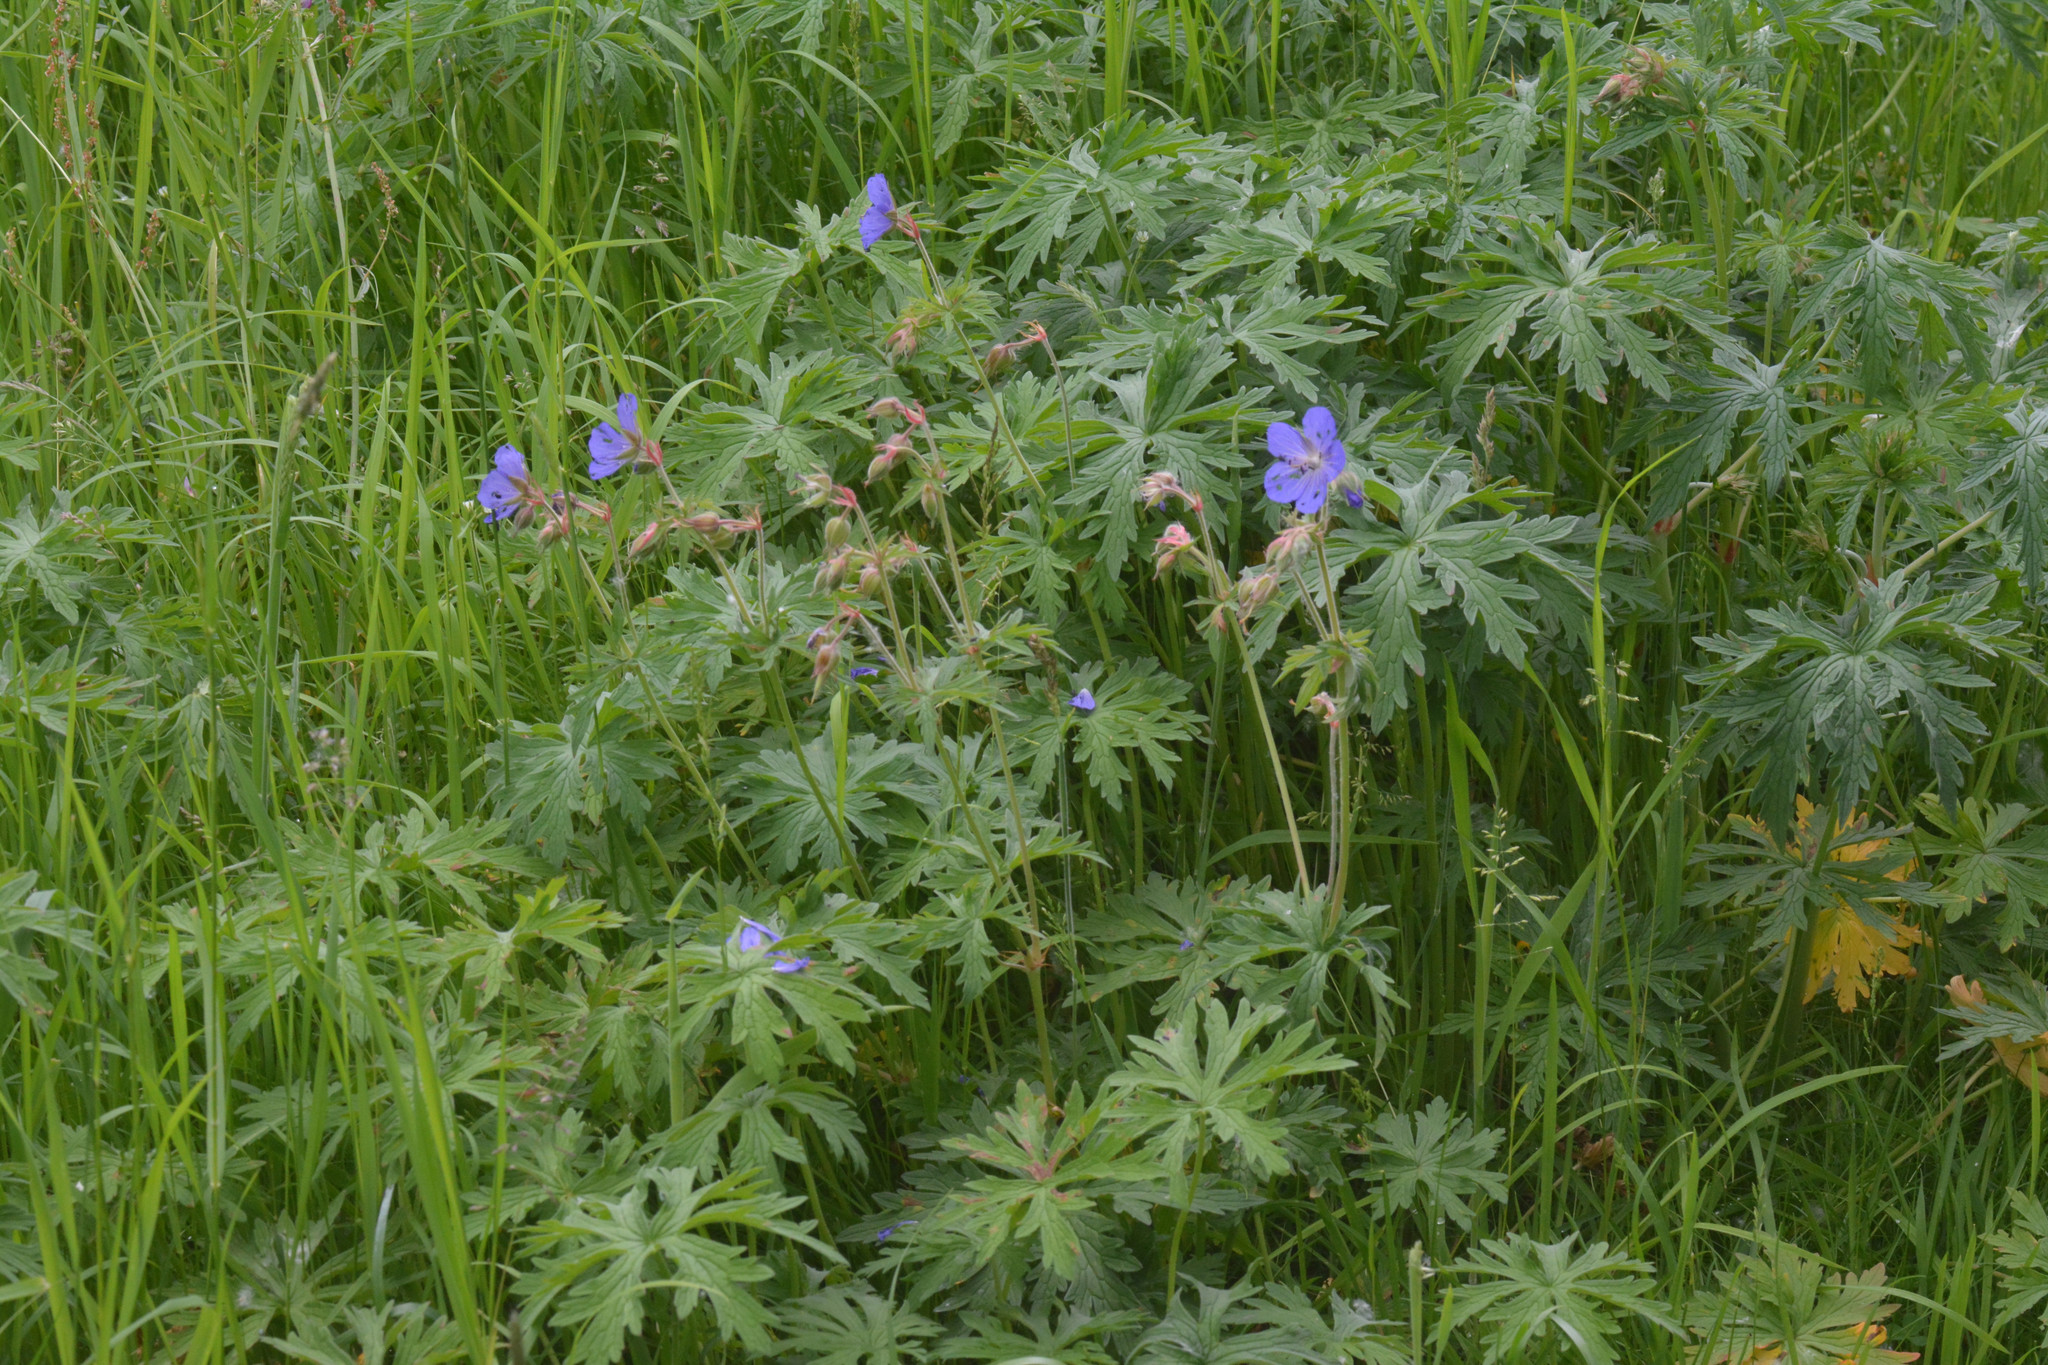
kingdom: Plantae
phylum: Tracheophyta
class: Magnoliopsida
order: Geraniales
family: Geraniaceae
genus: Geranium
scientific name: Geranium pratense
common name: Meadow crane's-bill
